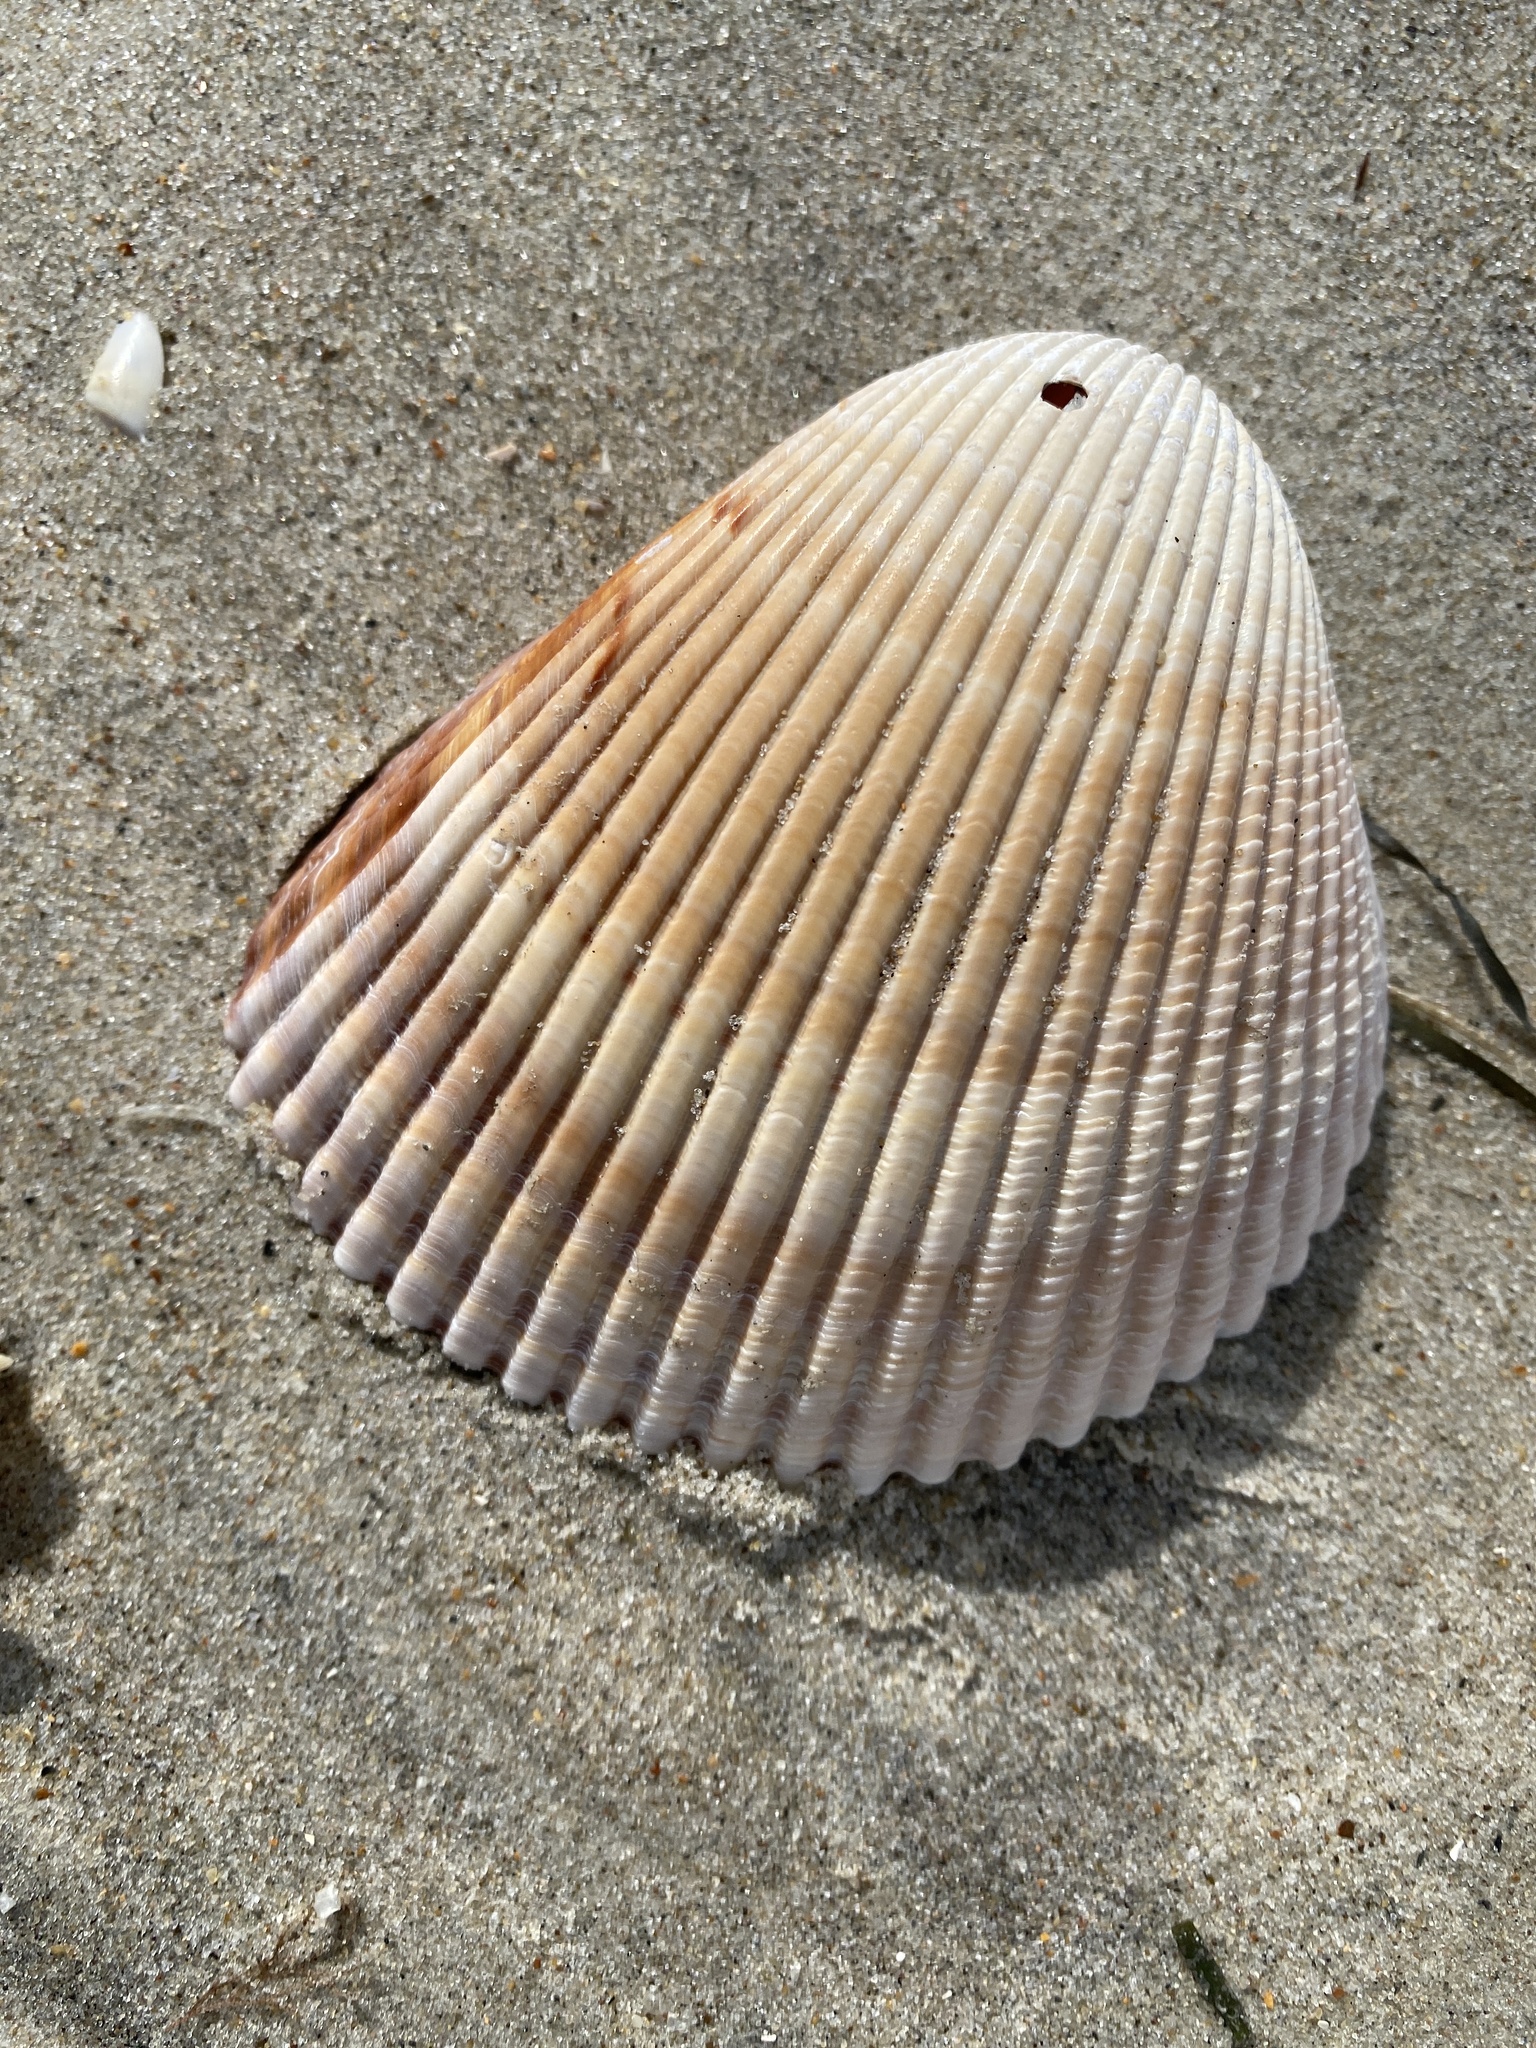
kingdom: Animalia
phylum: Mollusca
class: Bivalvia
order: Cardiida
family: Cardiidae
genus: Dinocardium
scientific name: Dinocardium robustum
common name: Atlantic giant cockle
